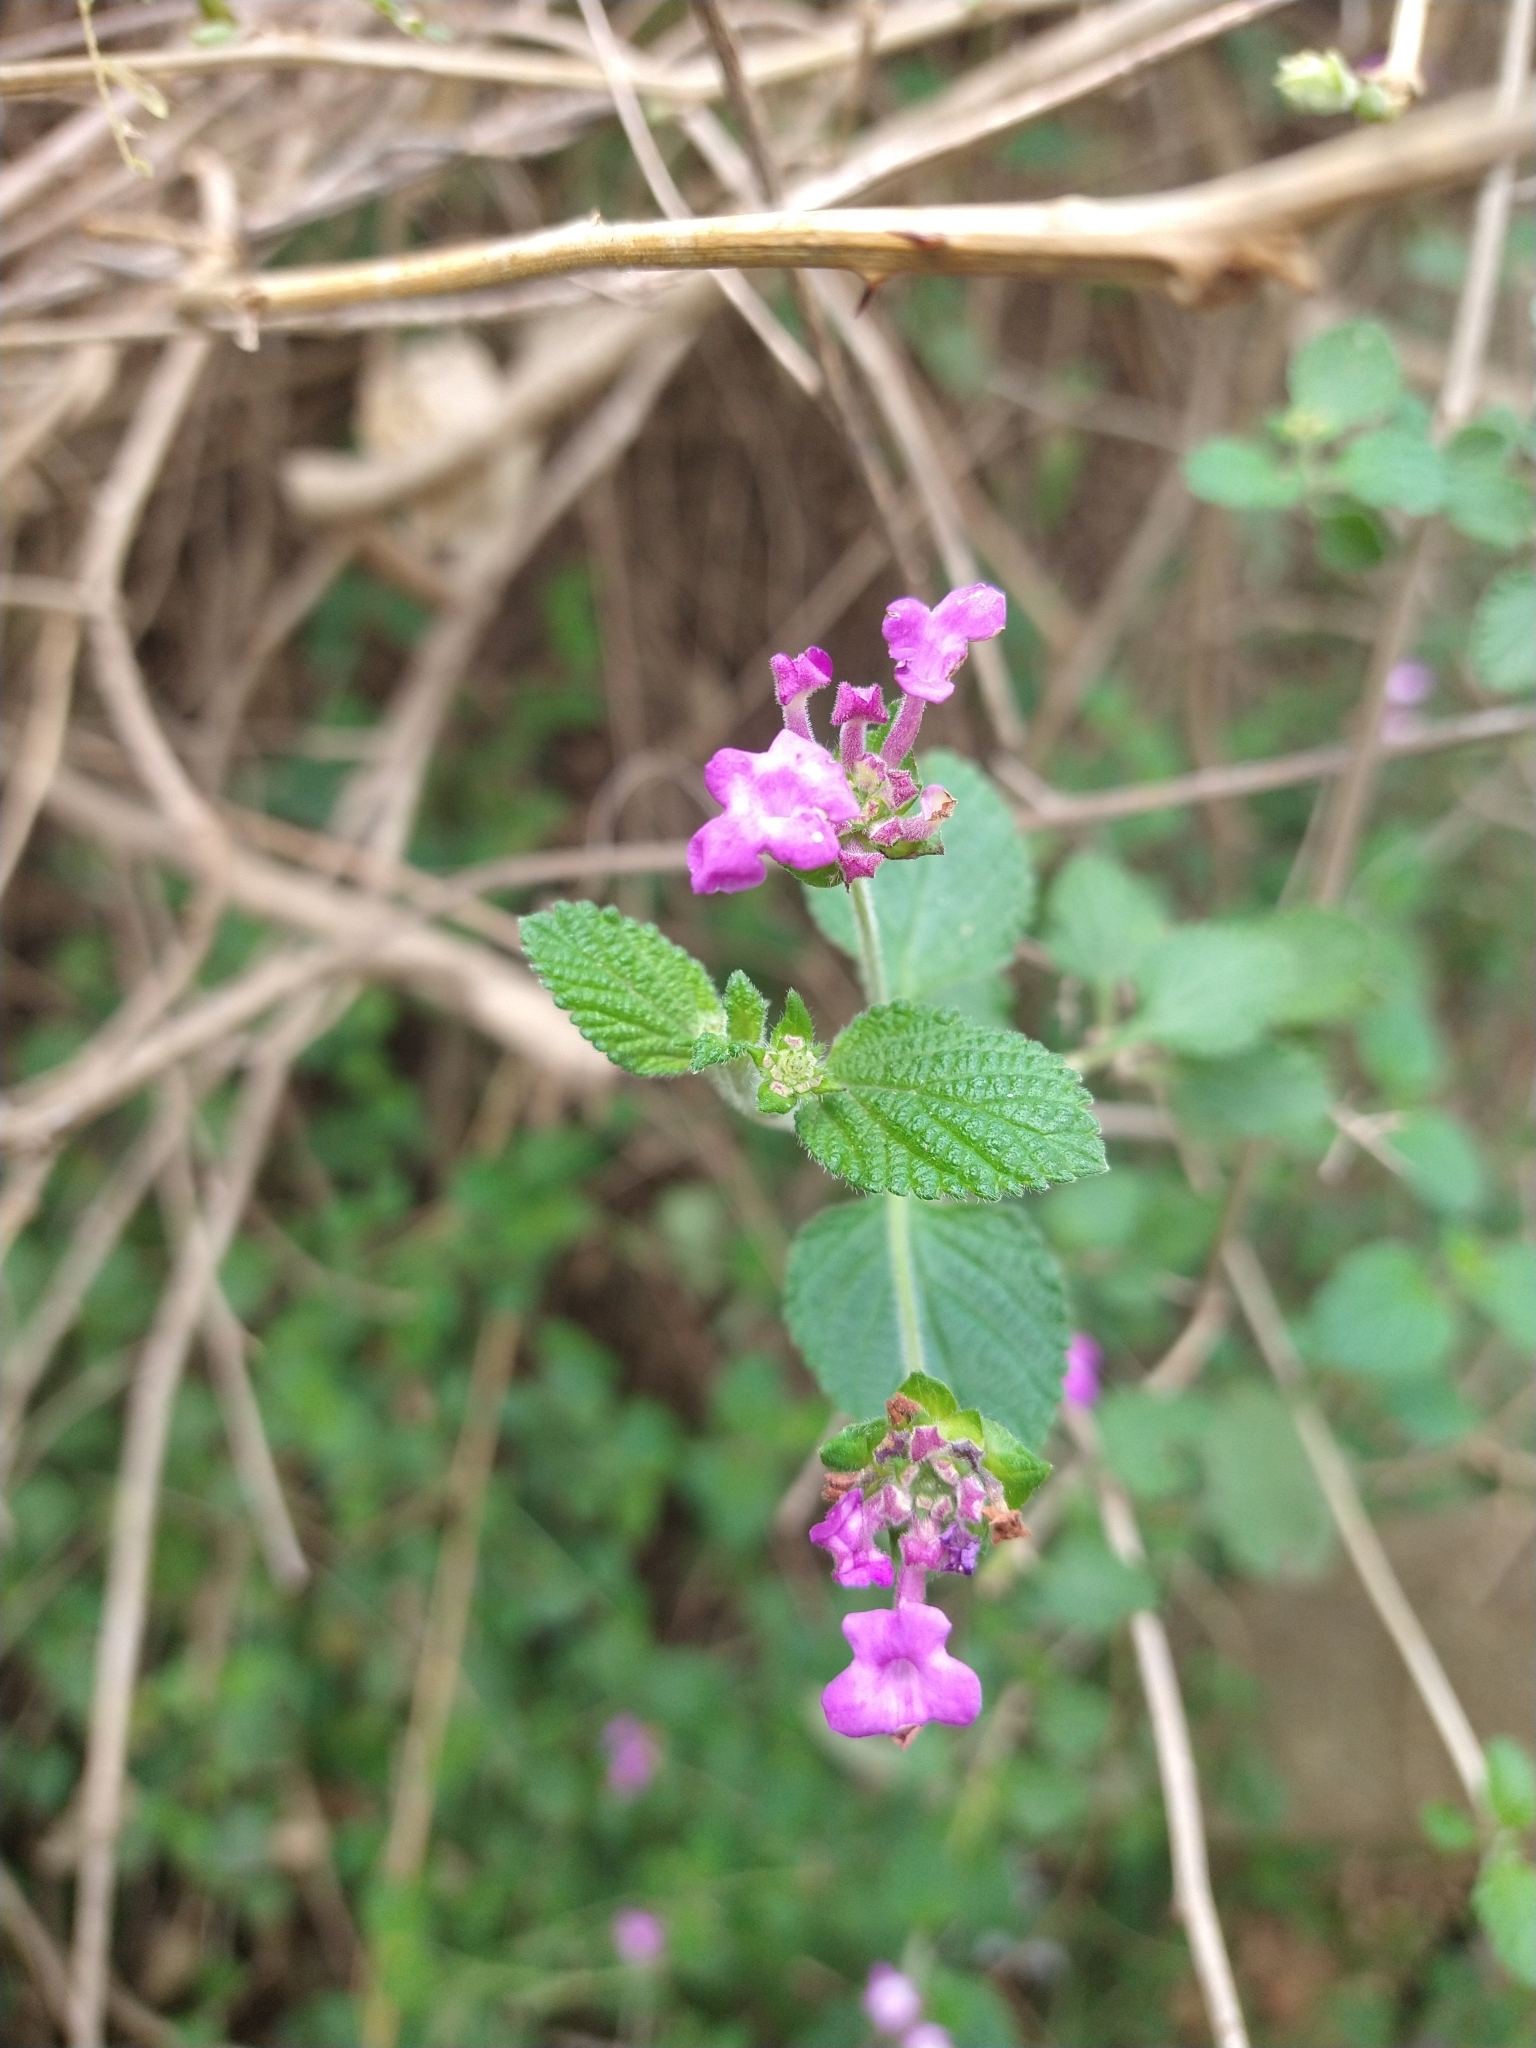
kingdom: Plantae
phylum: Tracheophyta
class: Magnoliopsida
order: Lamiales
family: Verbenaceae
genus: Lantana
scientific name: Lantana megapotamica
